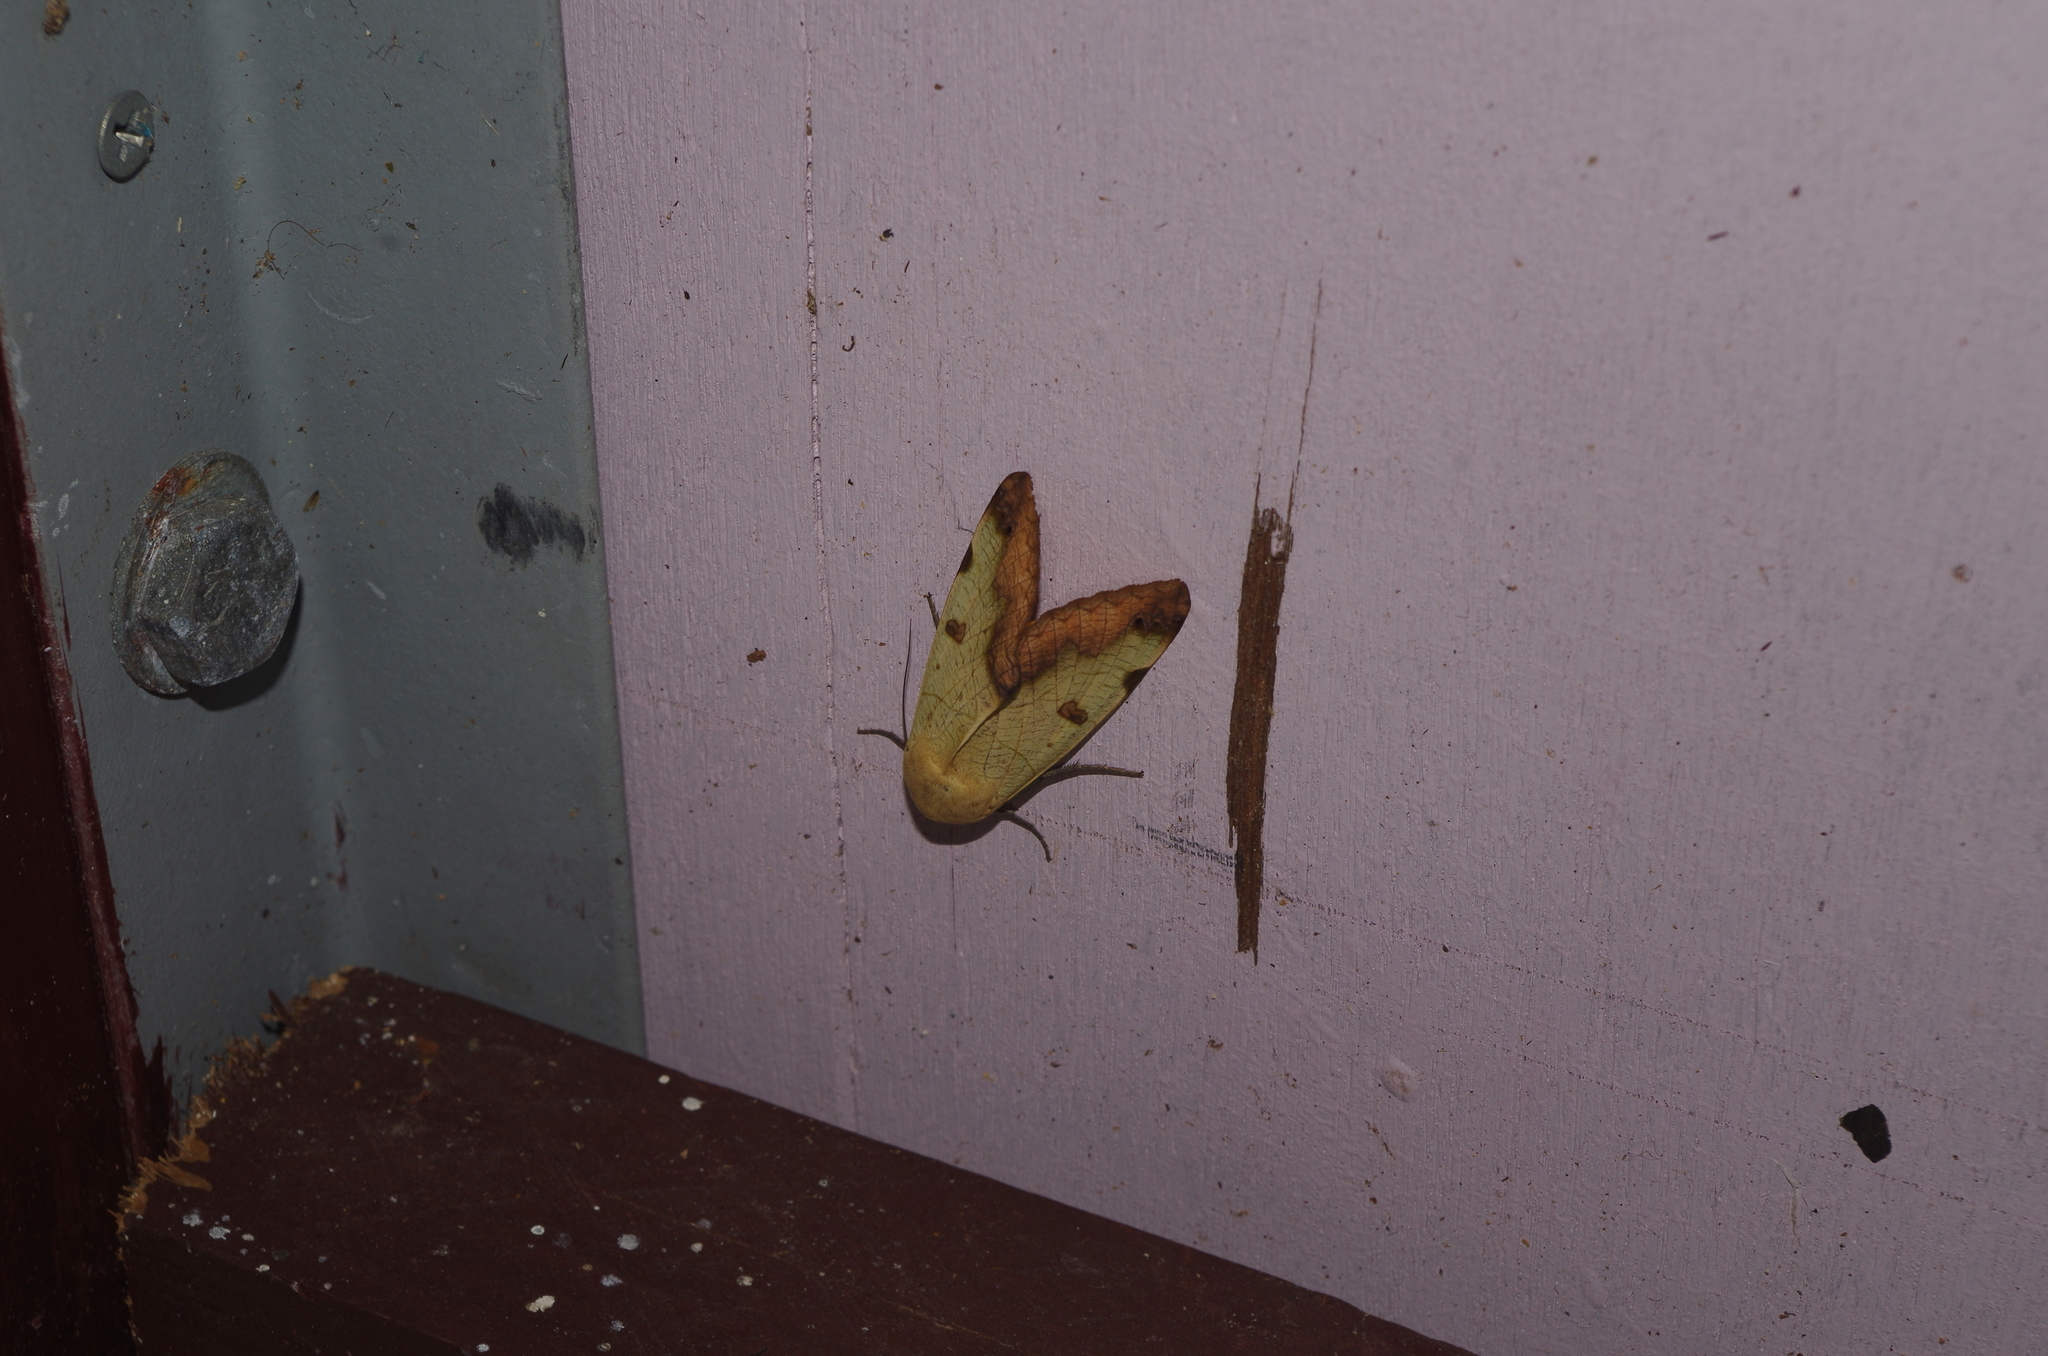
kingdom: Animalia
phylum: Arthropoda
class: Insecta
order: Lepidoptera
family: Erebidae
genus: Ophiusa
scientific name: Ophiusa tirhaca
